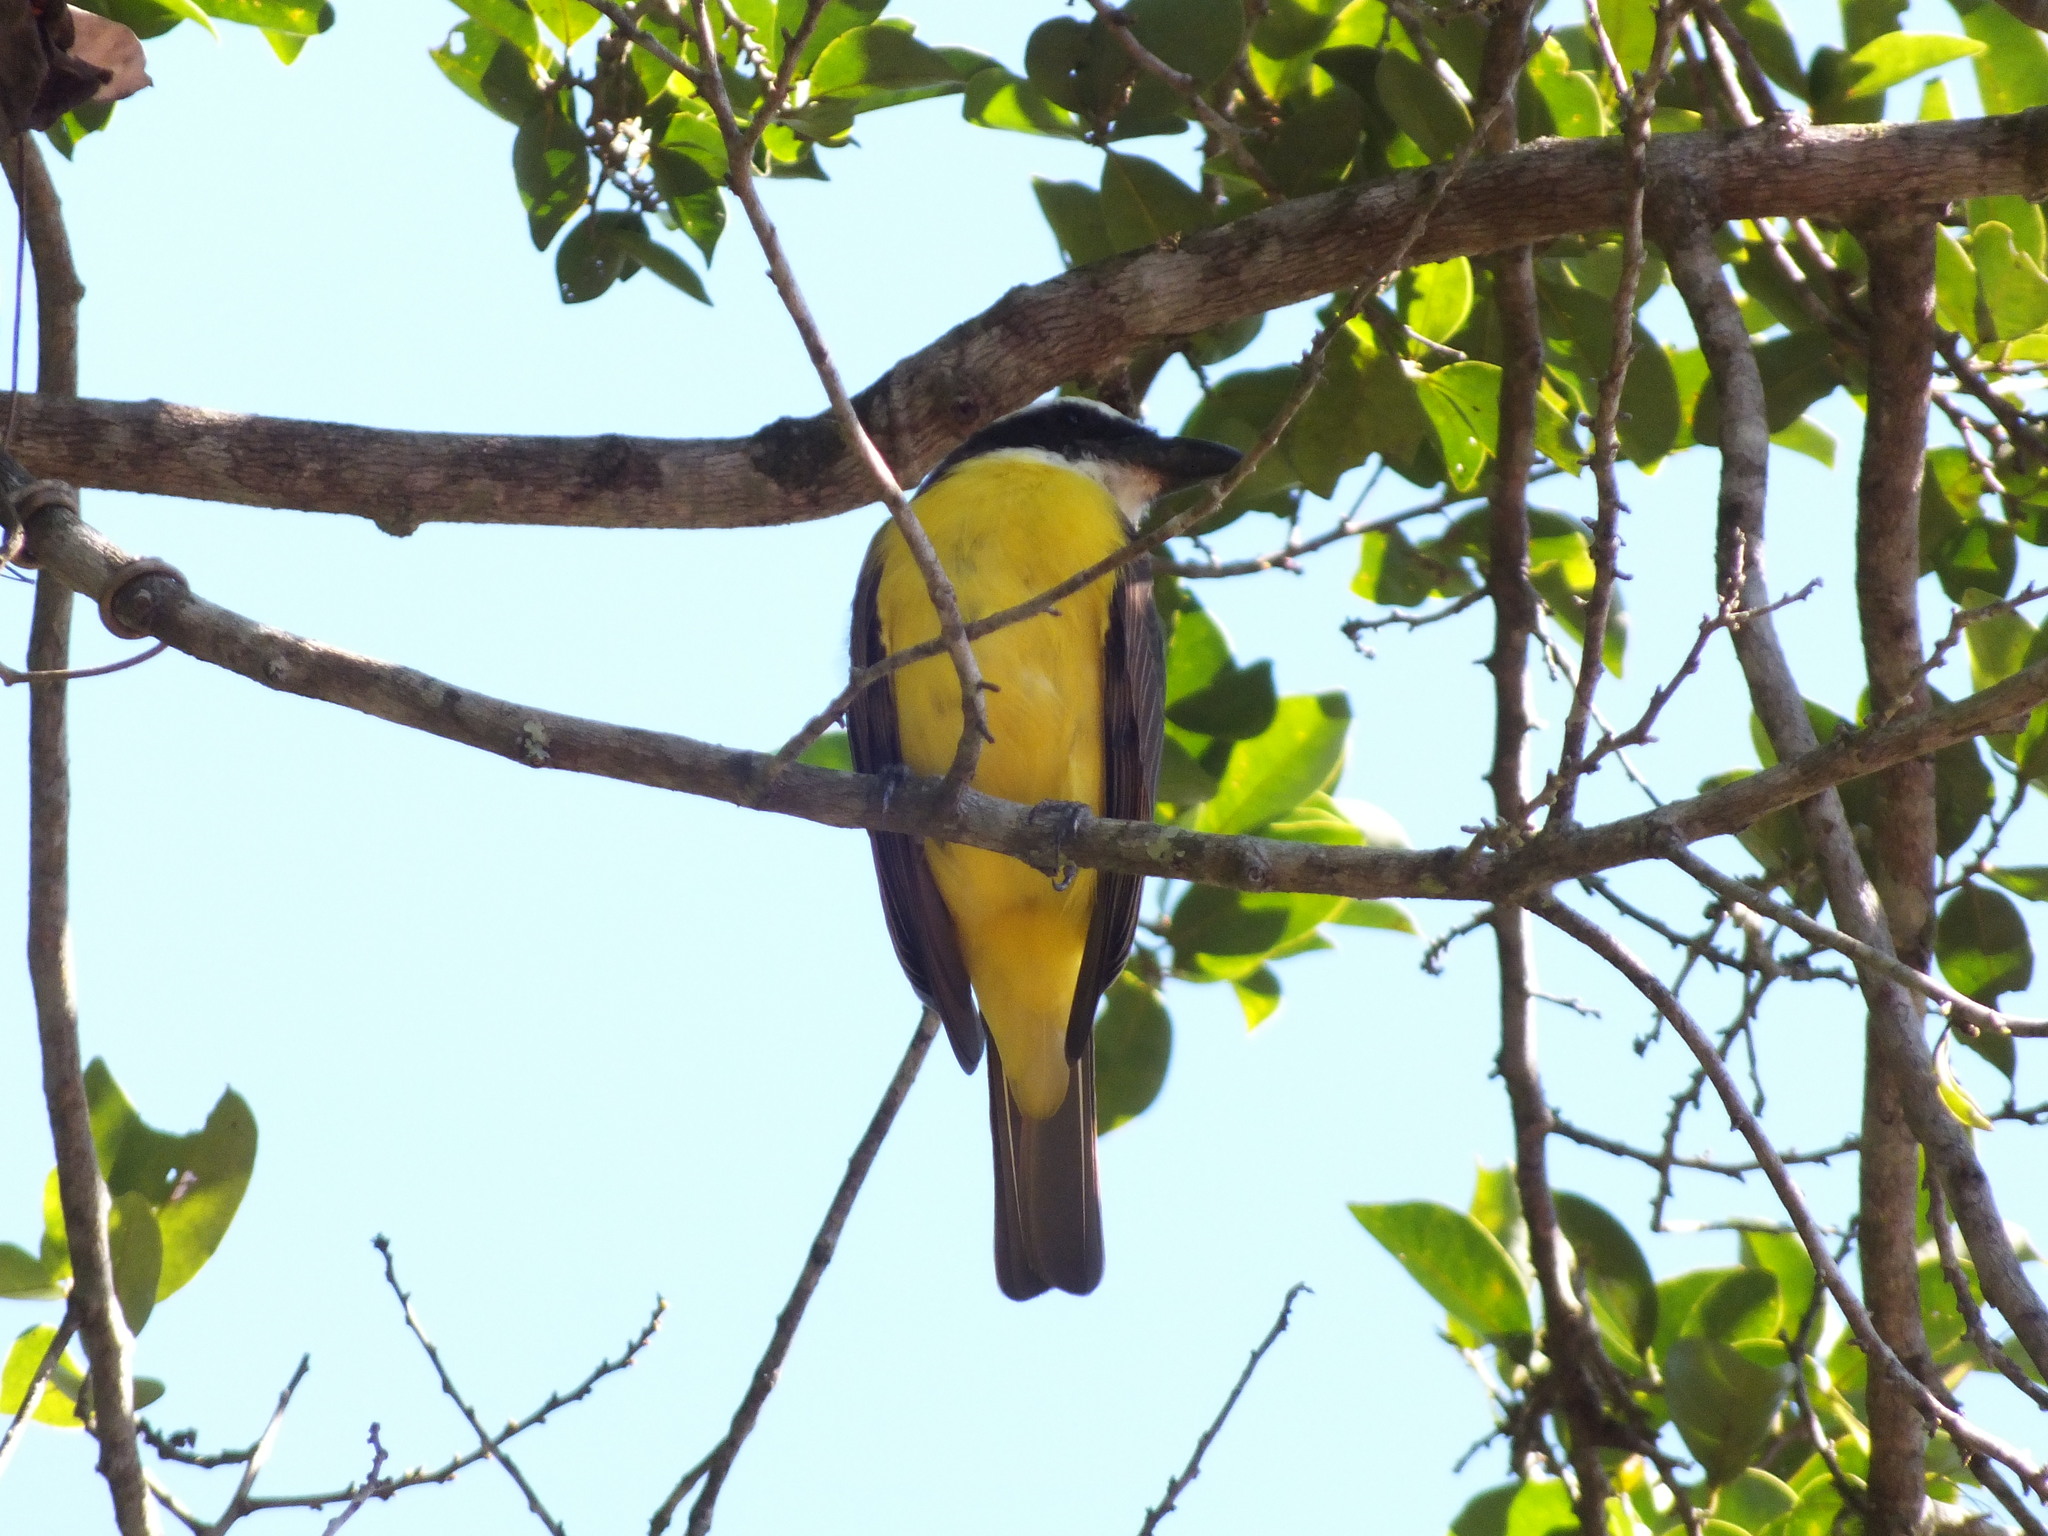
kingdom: Animalia
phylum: Chordata
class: Aves
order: Passeriformes
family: Tyrannidae
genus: Megarynchus
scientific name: Megarynchus pitangua
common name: Boat-billed flycatcher
